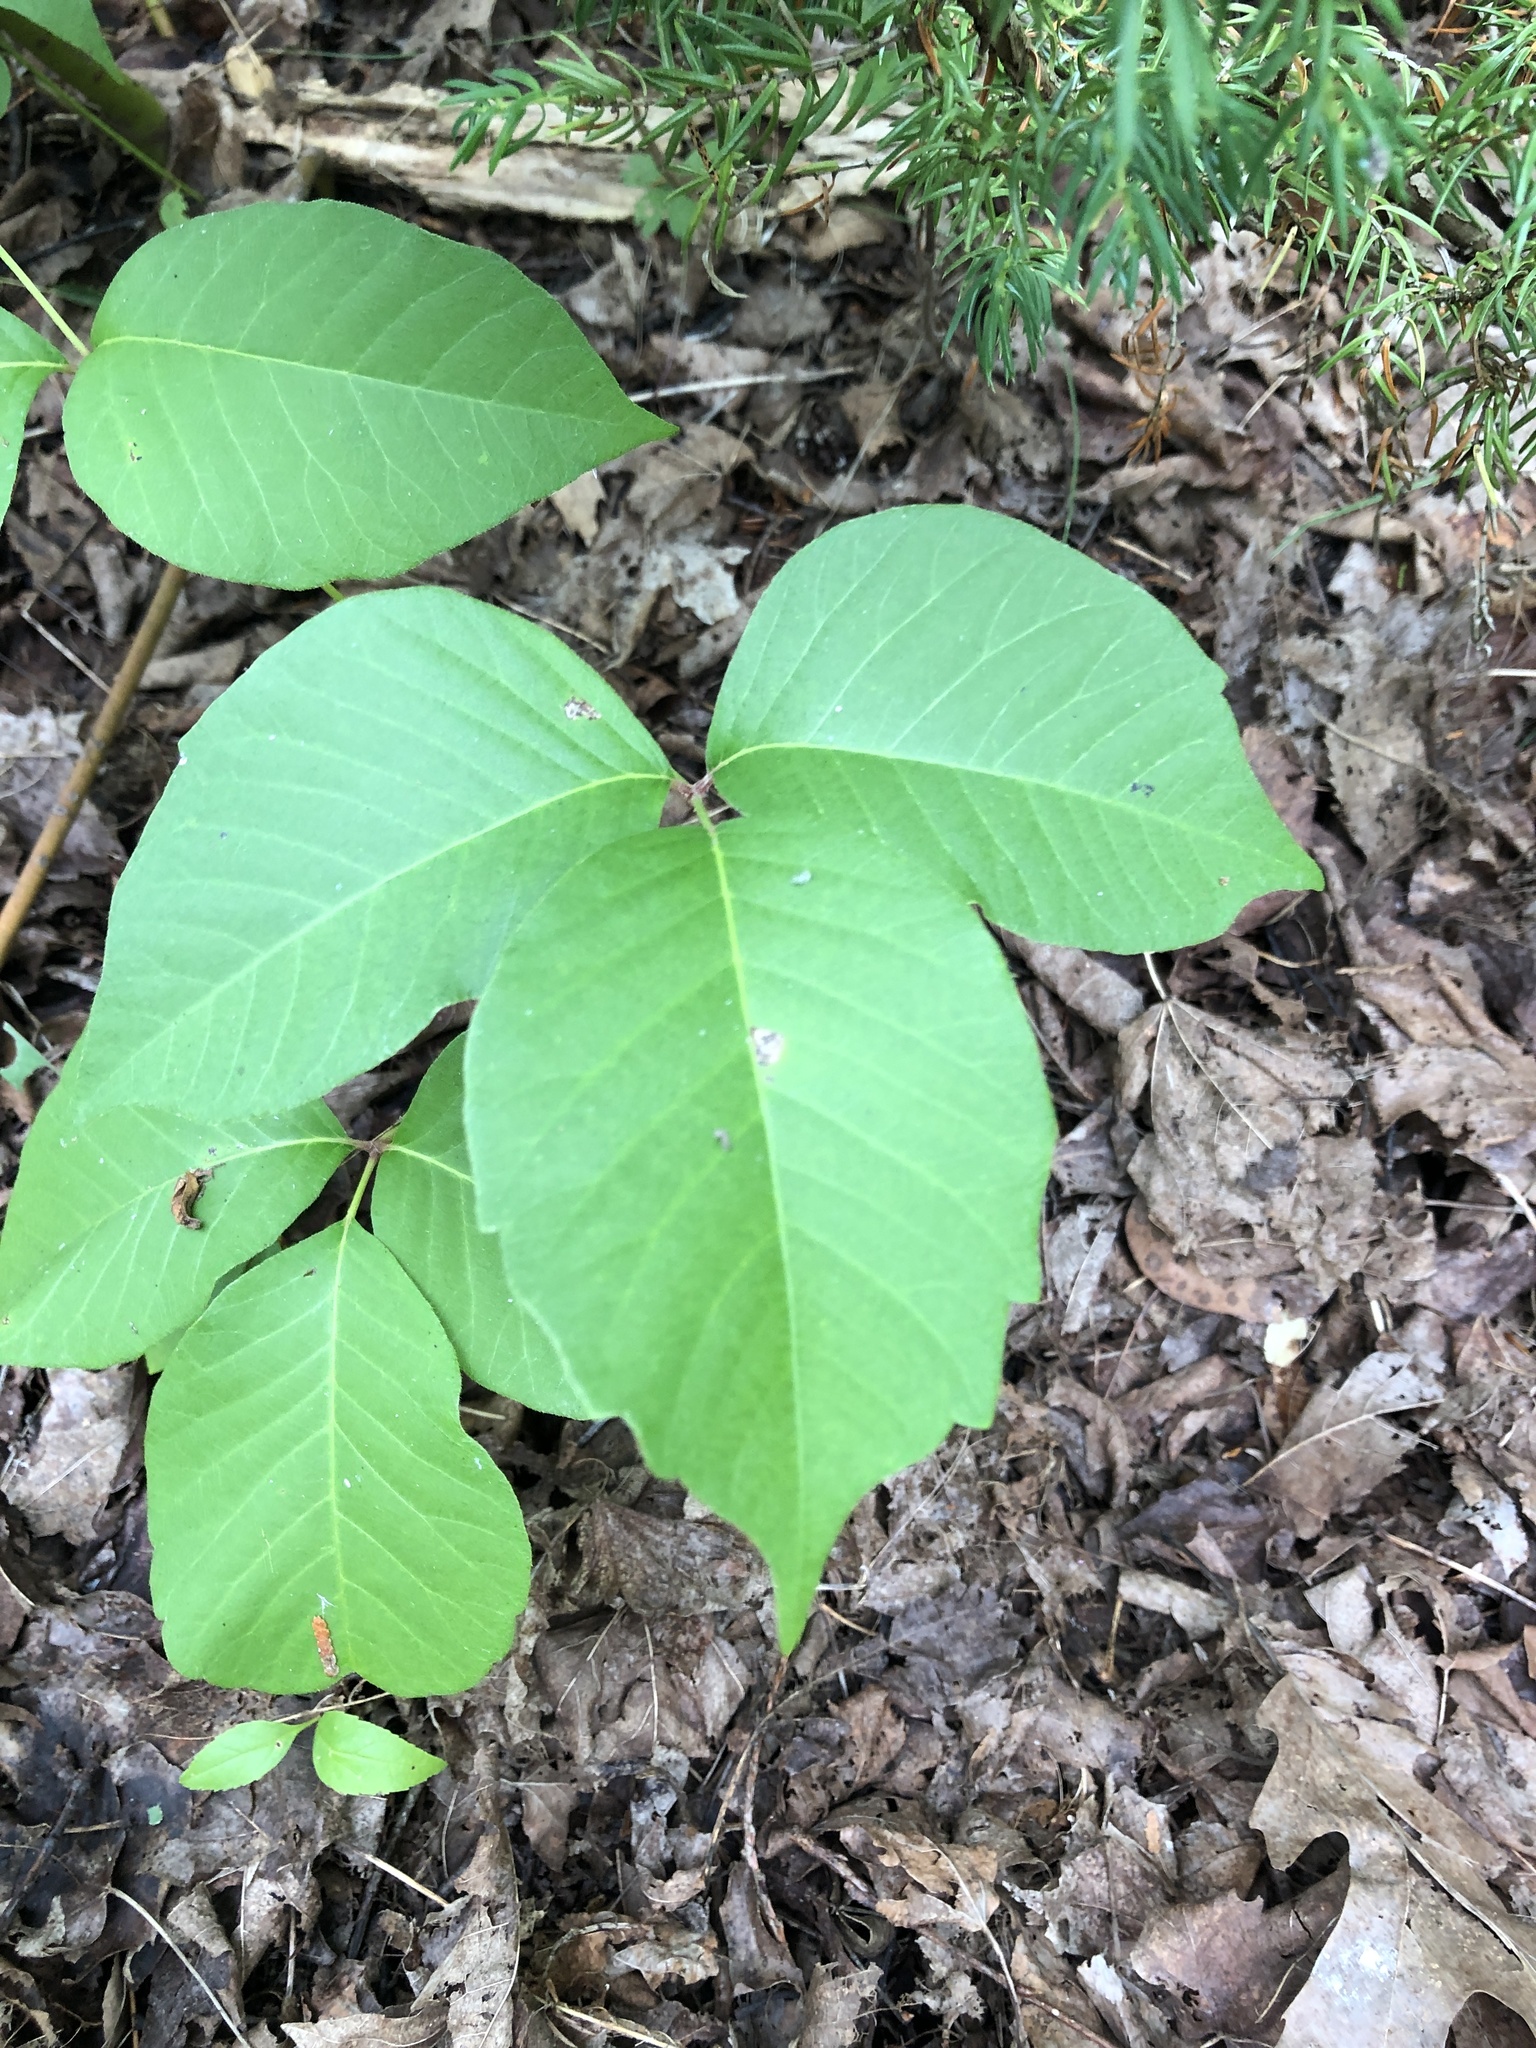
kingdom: Plantae
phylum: Tracheophyta
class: Magnoliopsida
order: Sapindales
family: Anacardiaceae
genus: Toxicodendron
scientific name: Toxicodendron rydbergii
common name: Rydberg's poison-ivy
